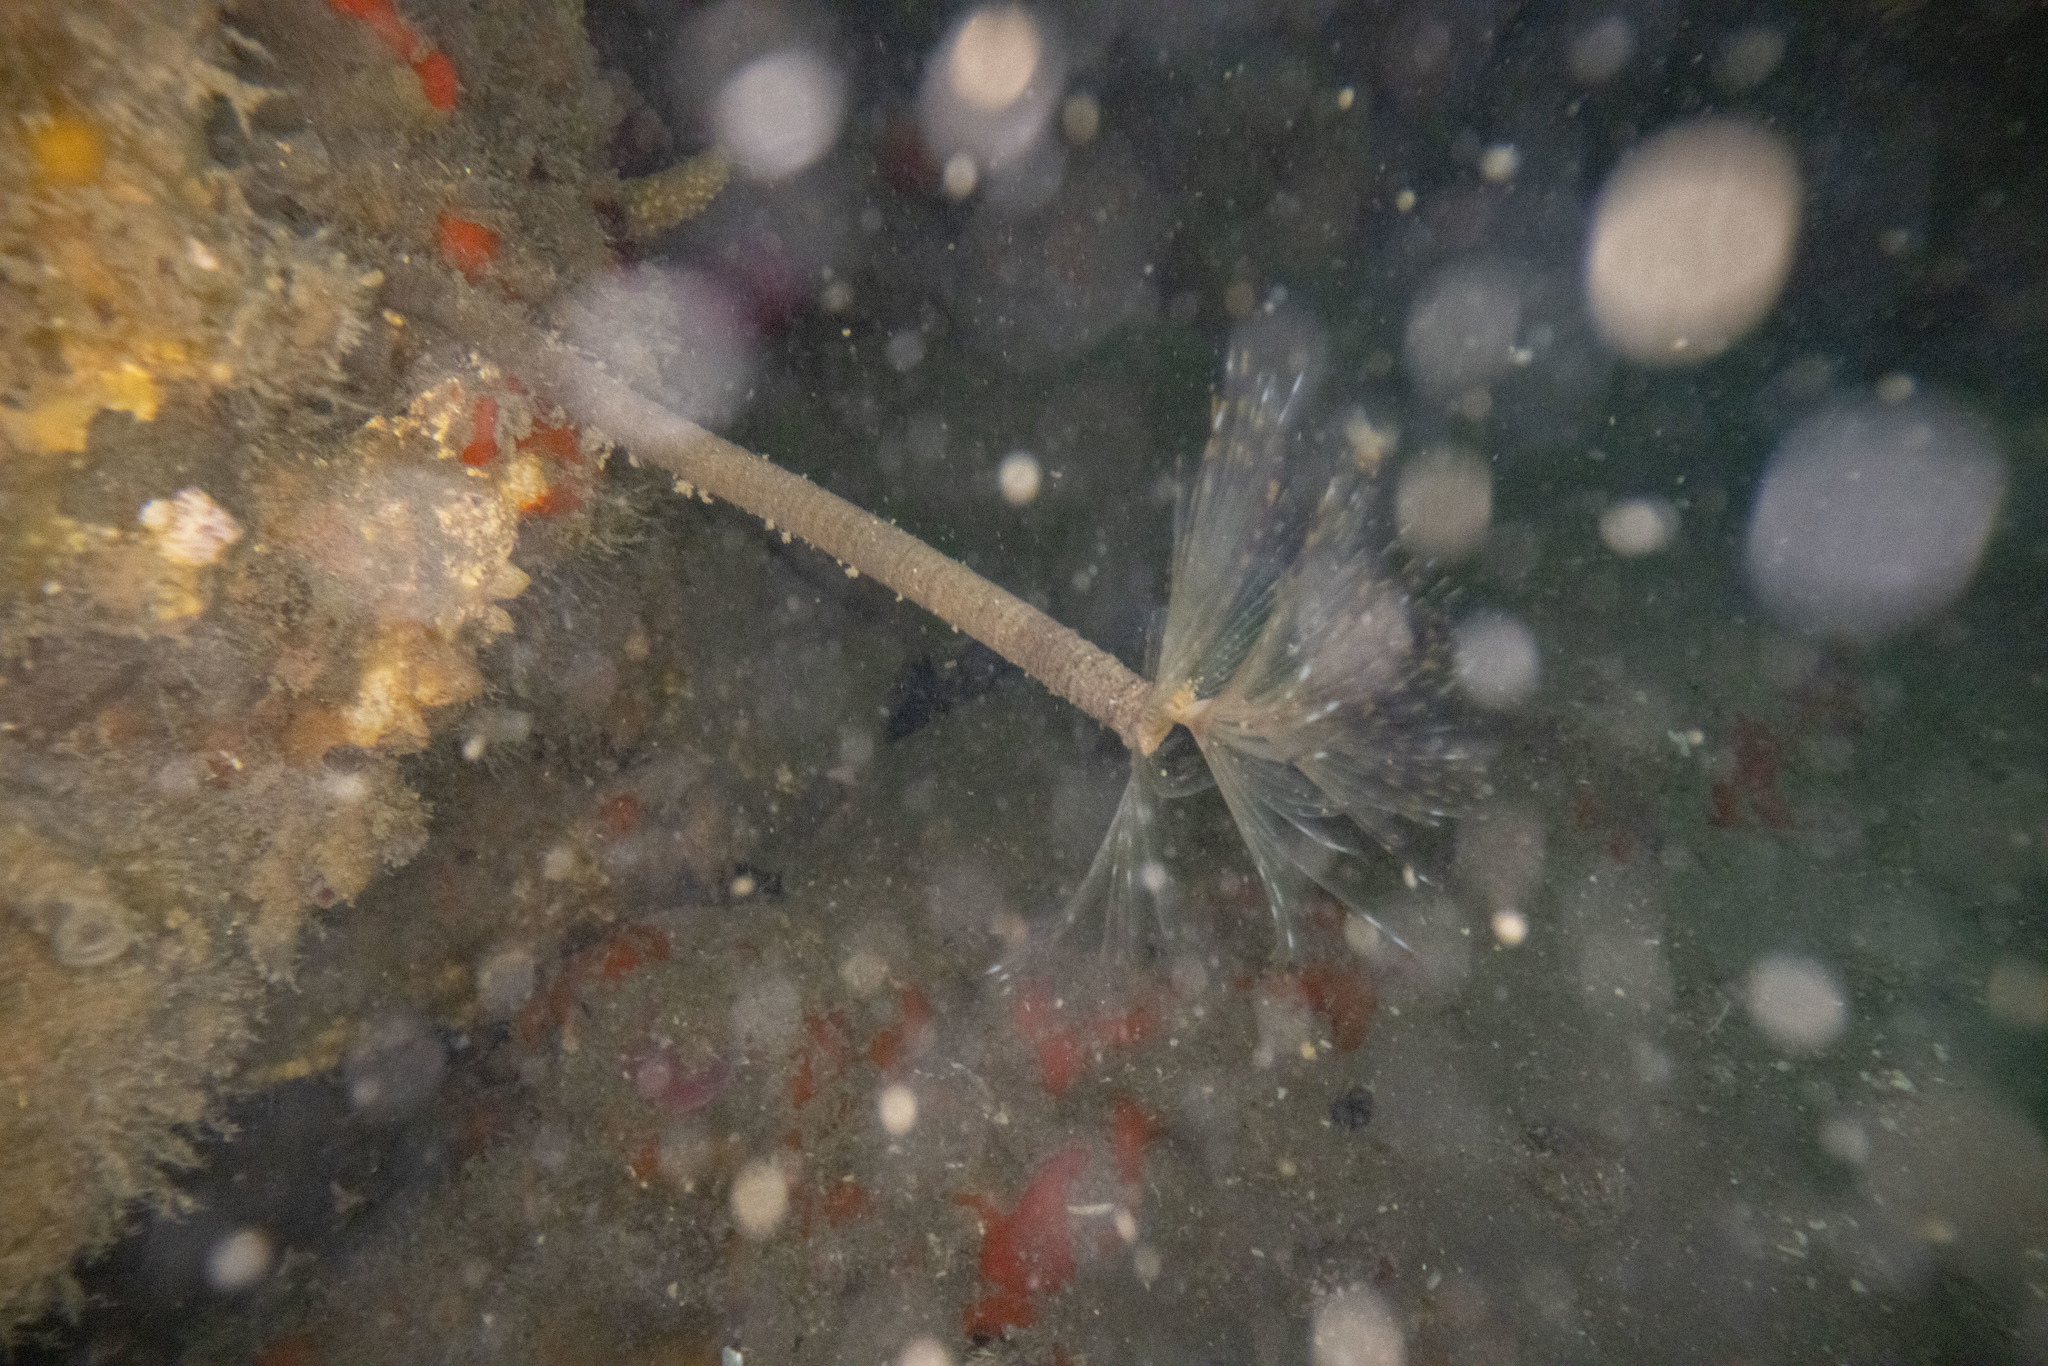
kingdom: Animalia
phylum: Annelida
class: Polychaeta
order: Sabellida
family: Sabellidae
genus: Sabella
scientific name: Sabella spallanzanii
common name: Feather duster worm
